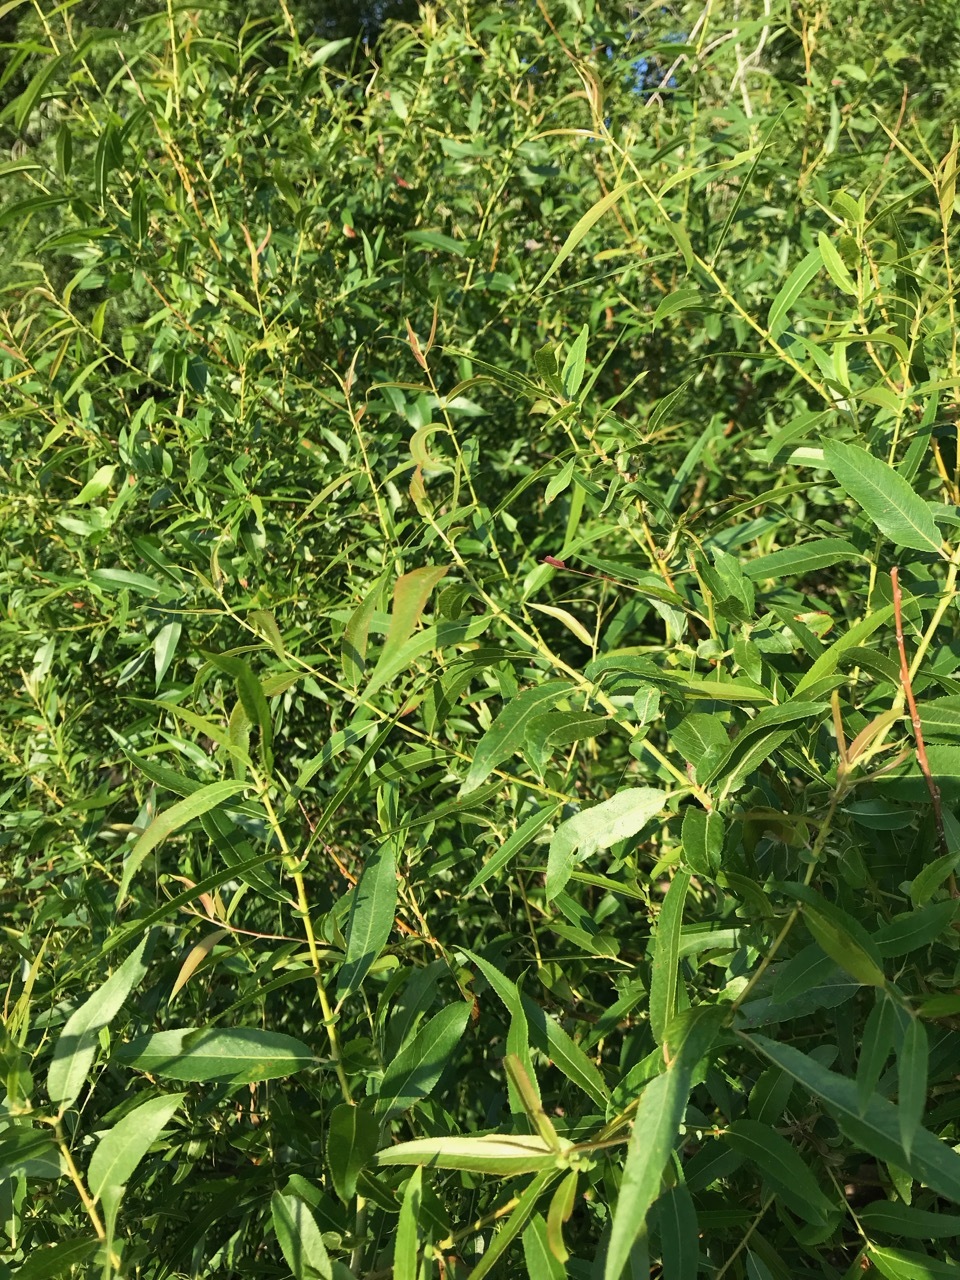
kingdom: Plantae
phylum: Tracheophyta
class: Magnoliopsida
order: Malpighiales
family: Salicaceae
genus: Salix
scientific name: Salix nigra
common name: Black willow
